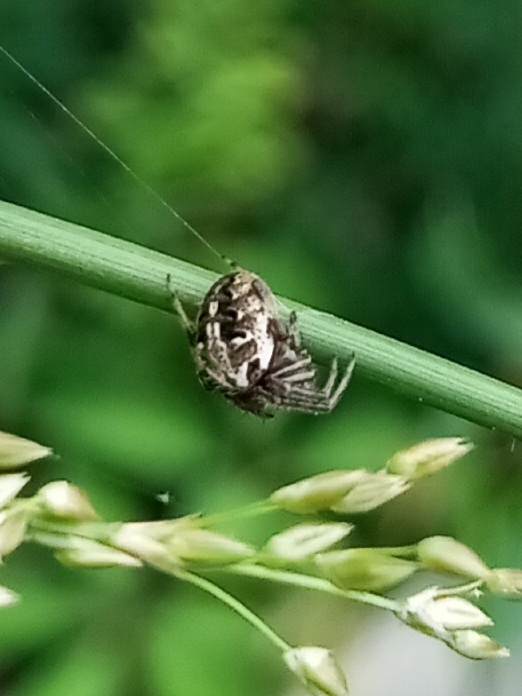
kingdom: Animalia
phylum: Arthropoda
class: Arachnida
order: Araneae
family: Araneidae
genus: Neoscona
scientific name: Neoscona arabesca
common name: Orb weavers
